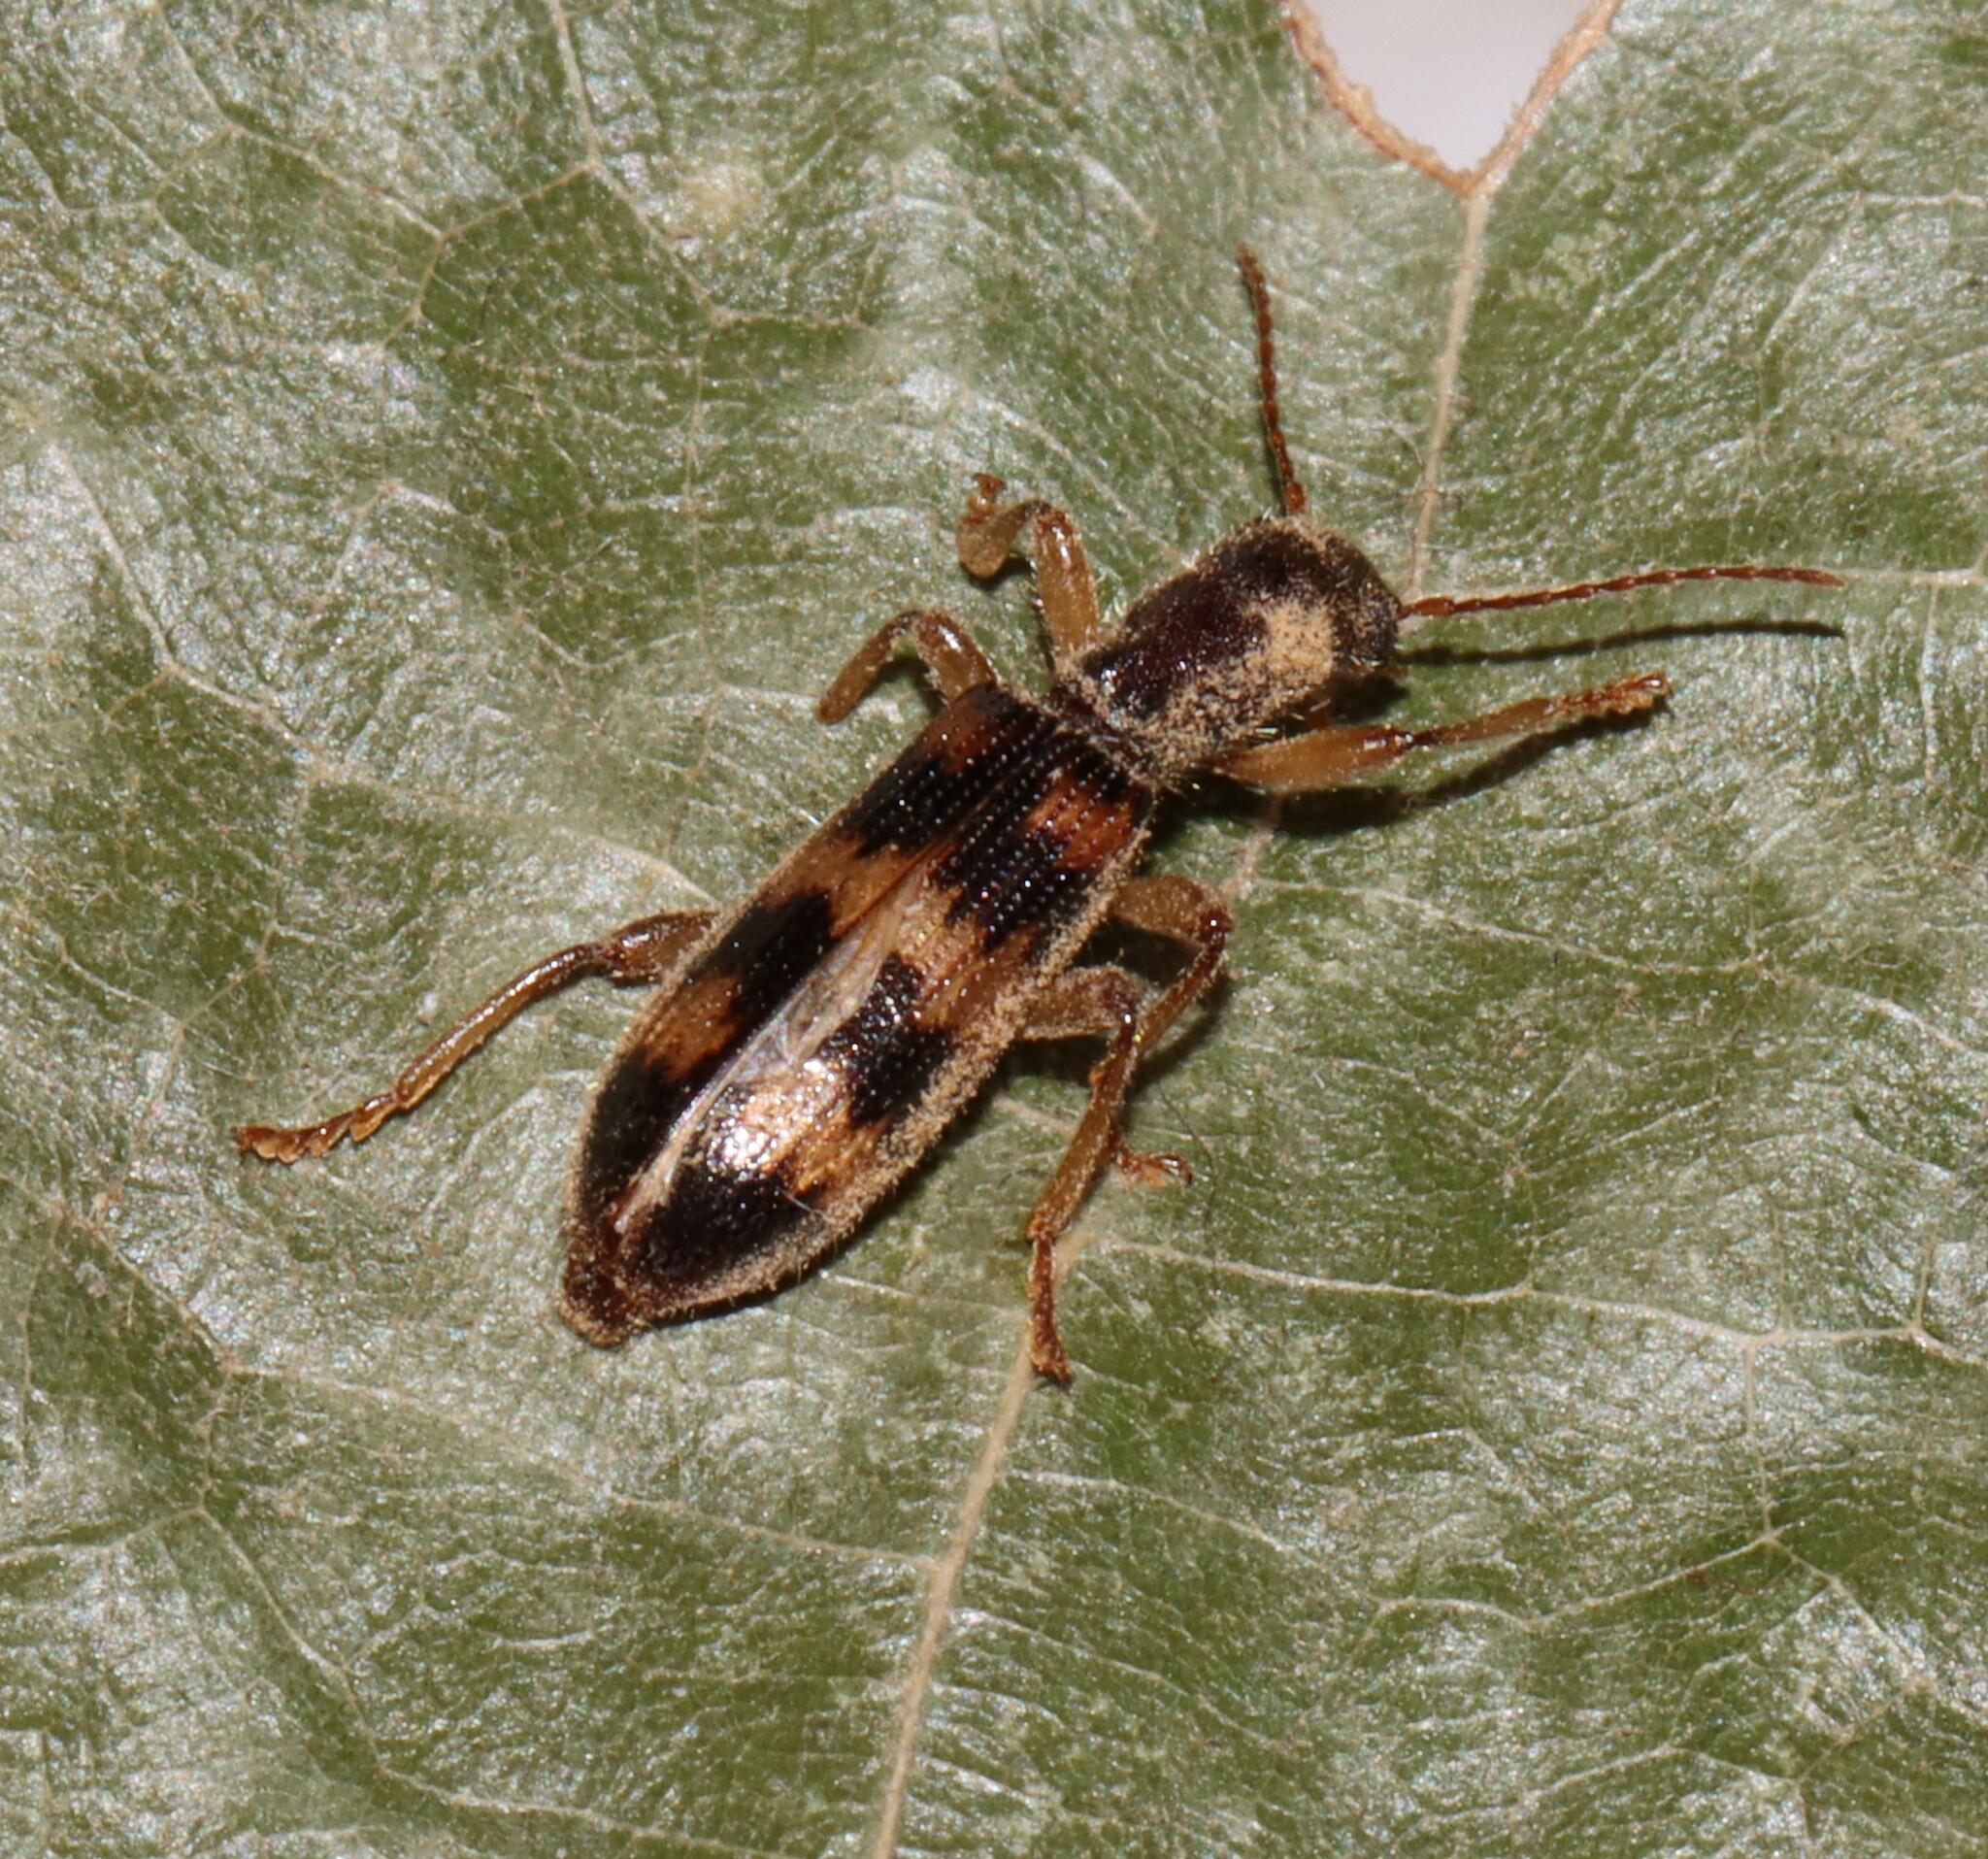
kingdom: Animalia
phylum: Arthropoda
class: Insecta
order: Coleoptera
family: Cleridae
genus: Cymatodera
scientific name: Cymatodera undulata
